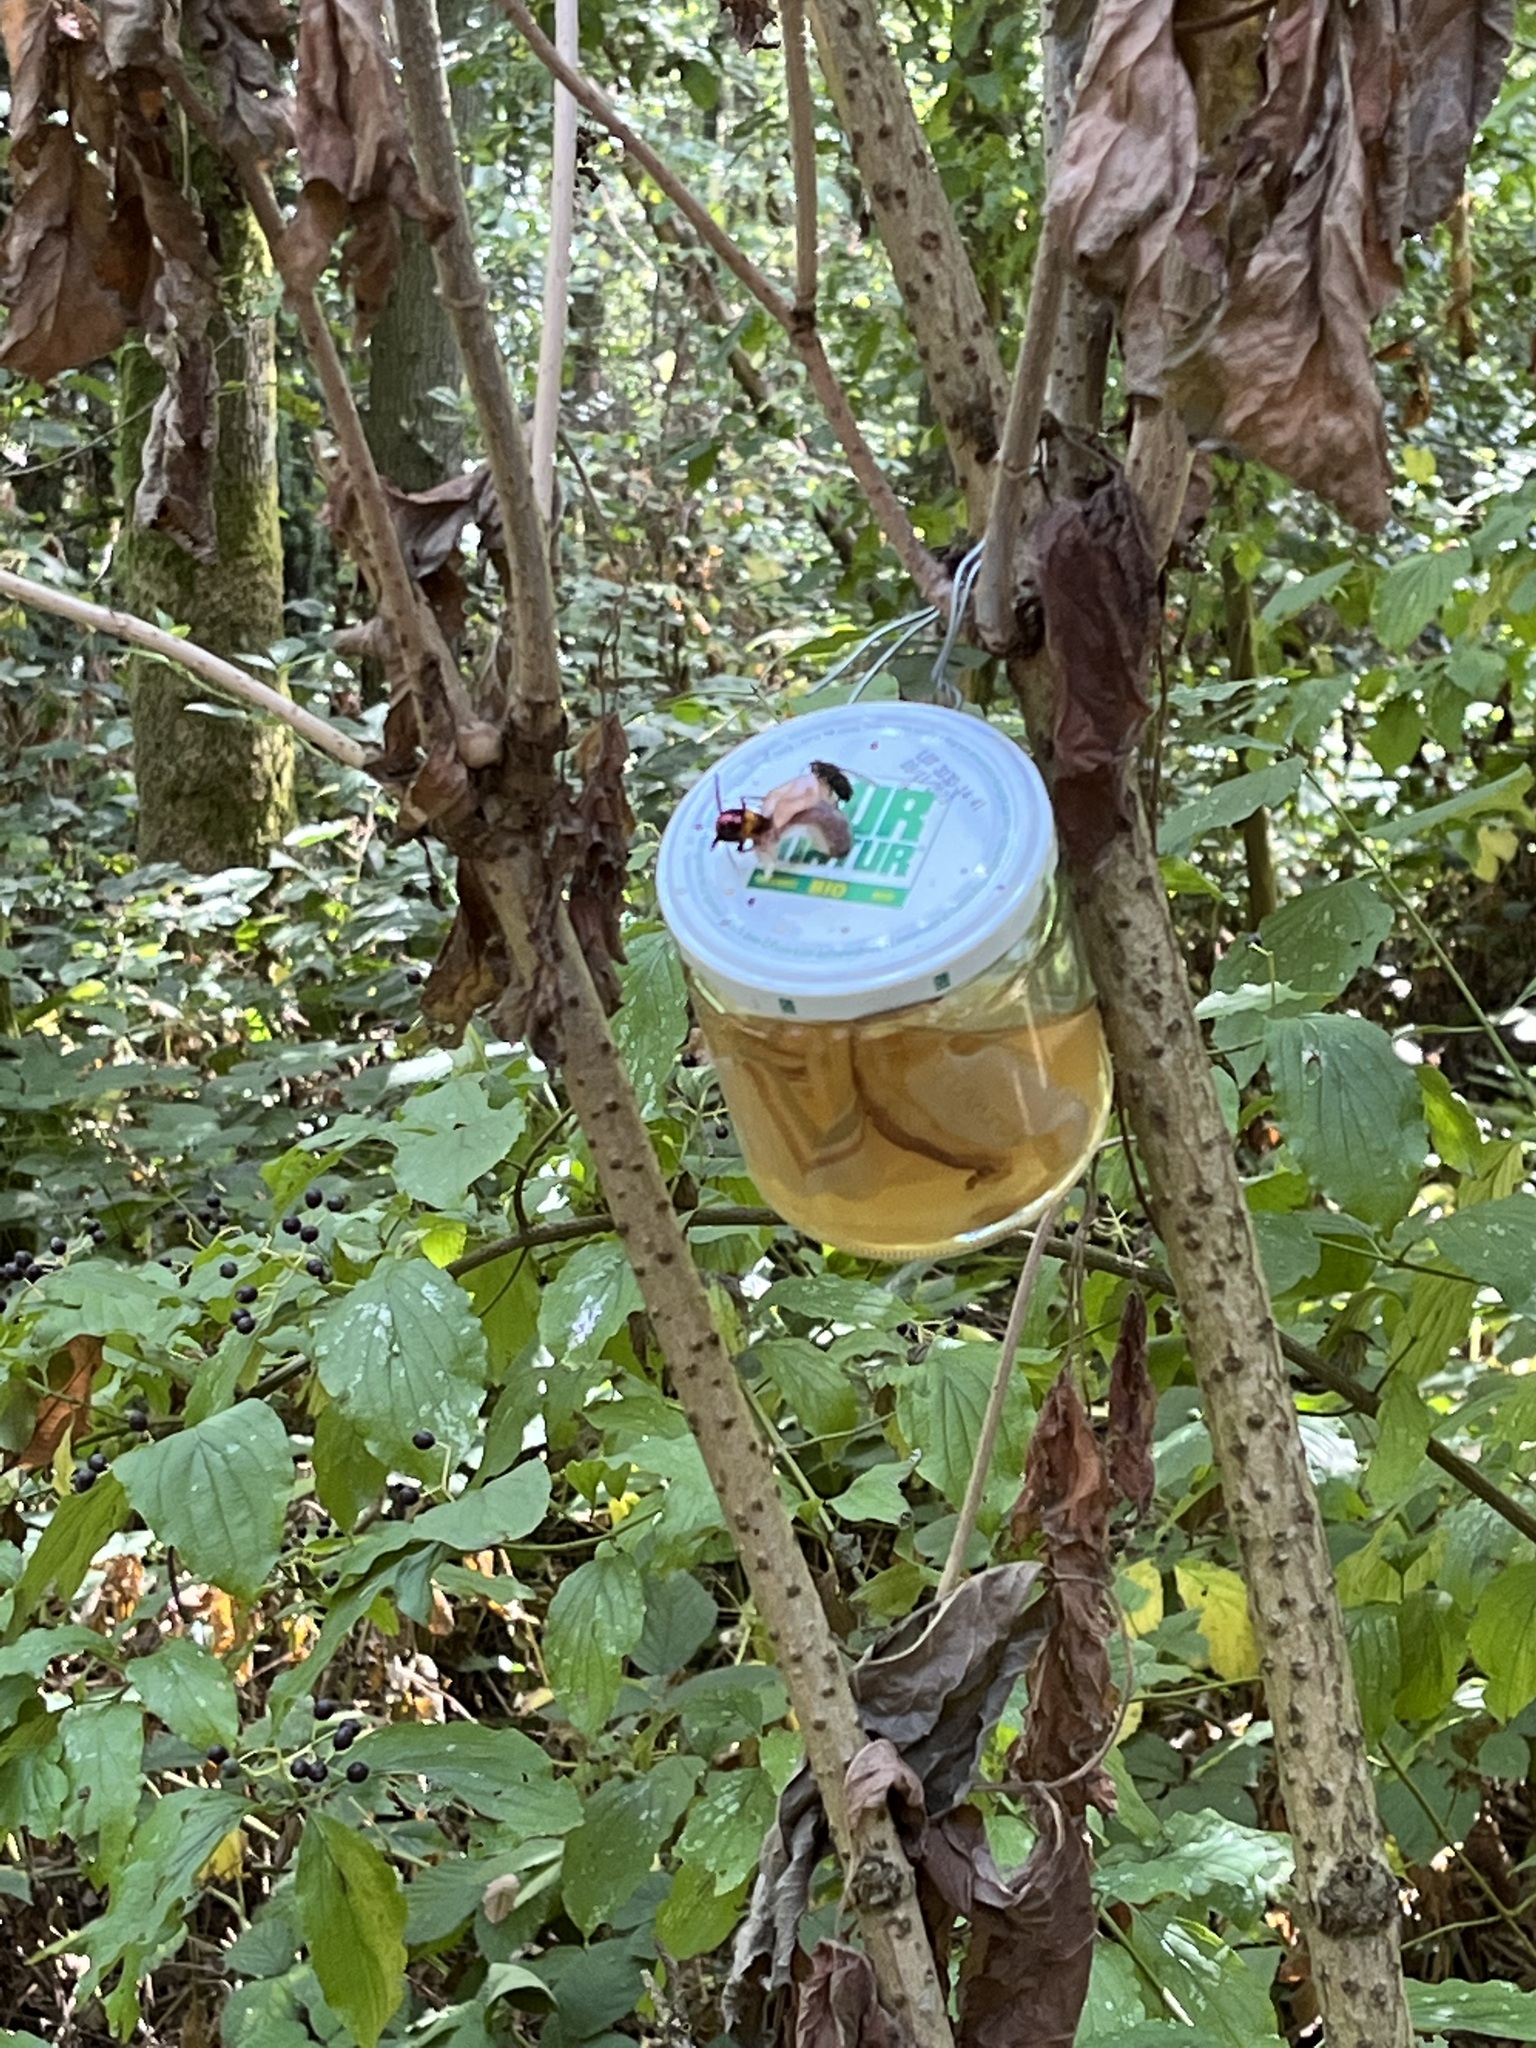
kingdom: Animalia
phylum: Arthropoda
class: Insecta
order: Hymenoptera
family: Vespidae
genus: Vespa
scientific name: Vespa velutina
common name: Asian hornet
